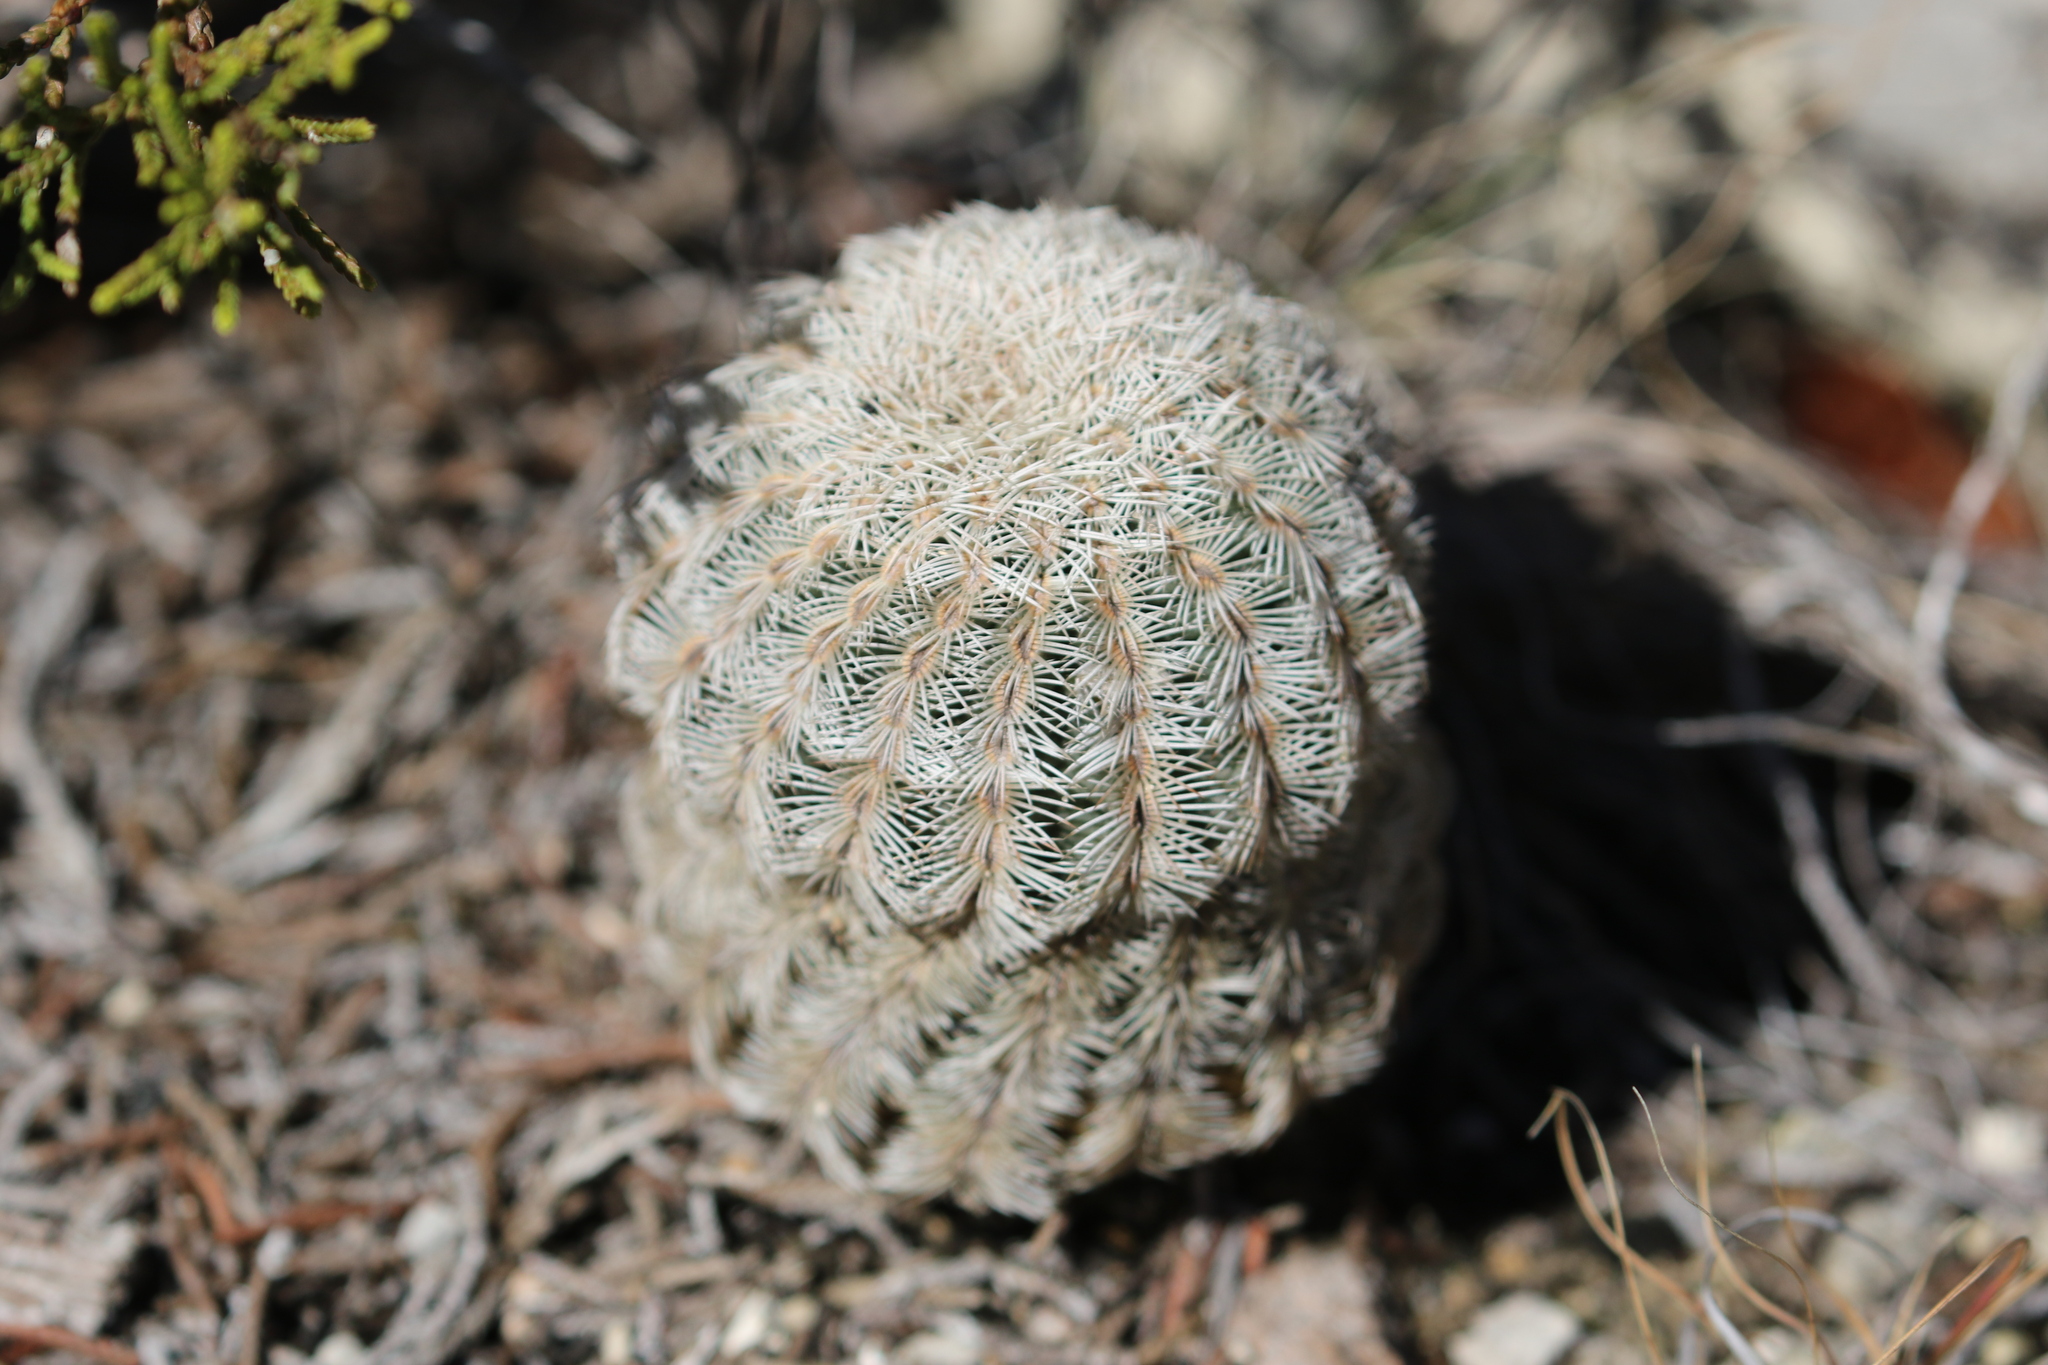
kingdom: Plantae
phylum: Tracheophyta
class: Magnoliopsida
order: Caryophyllales
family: Cactaceae
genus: Echinocereus
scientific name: Echinocereus reichenbachii
